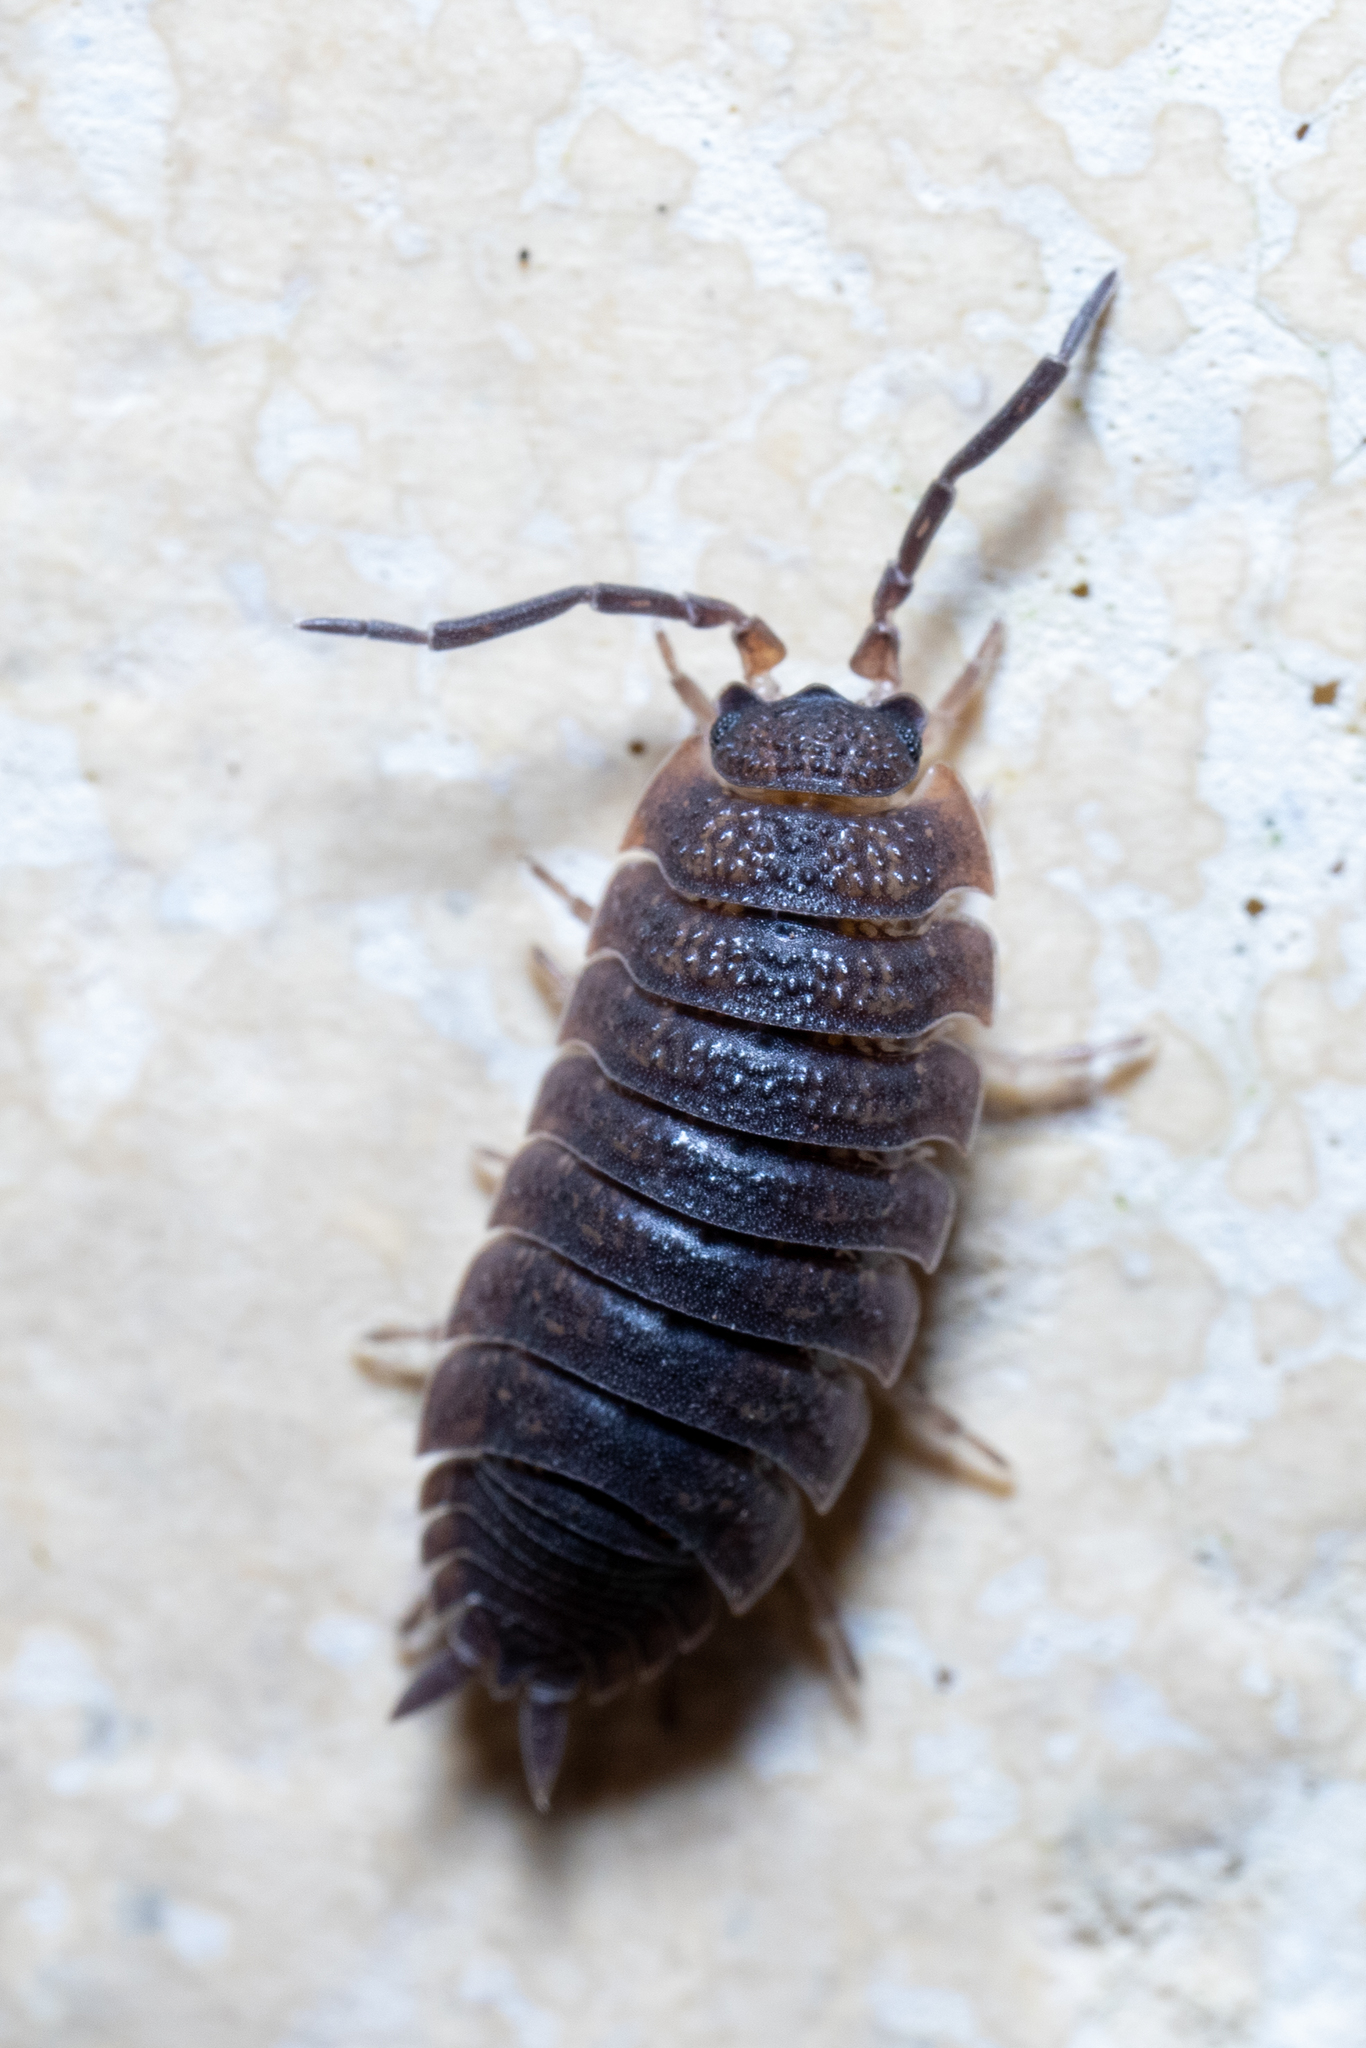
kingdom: Animalia
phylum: Arthropoda
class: Malacostraca
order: Isopoda
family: Porcellionidae
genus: Porcellio
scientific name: Porcellio scaber
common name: Common rough woodlouse
